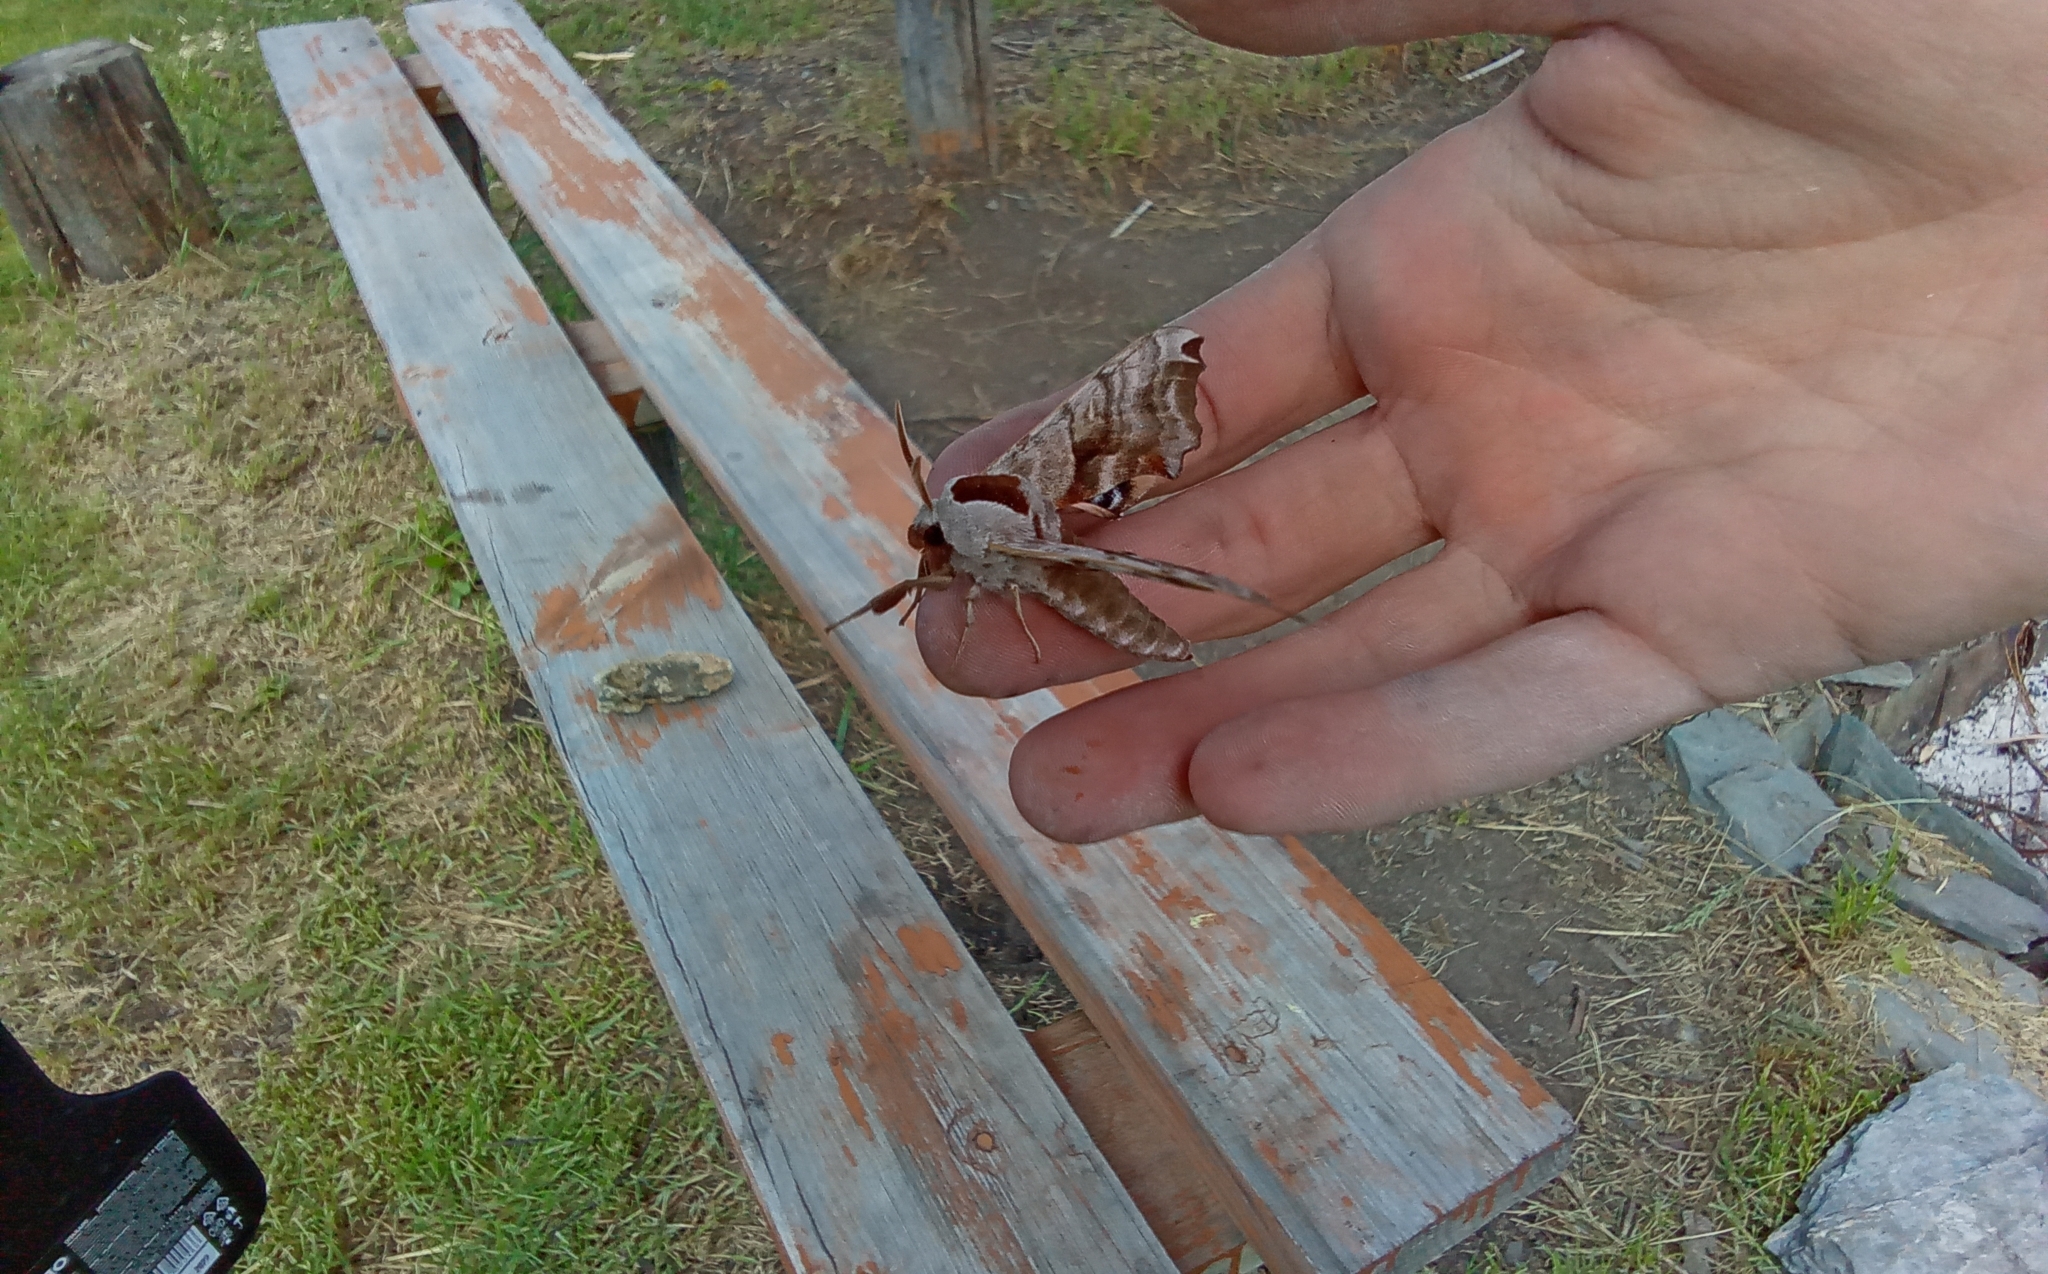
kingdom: Animalia
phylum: Arthropoda
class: Insecta
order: Lepidoptera
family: Sphingidae
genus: Smerinthus
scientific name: Smerinthus caecus
